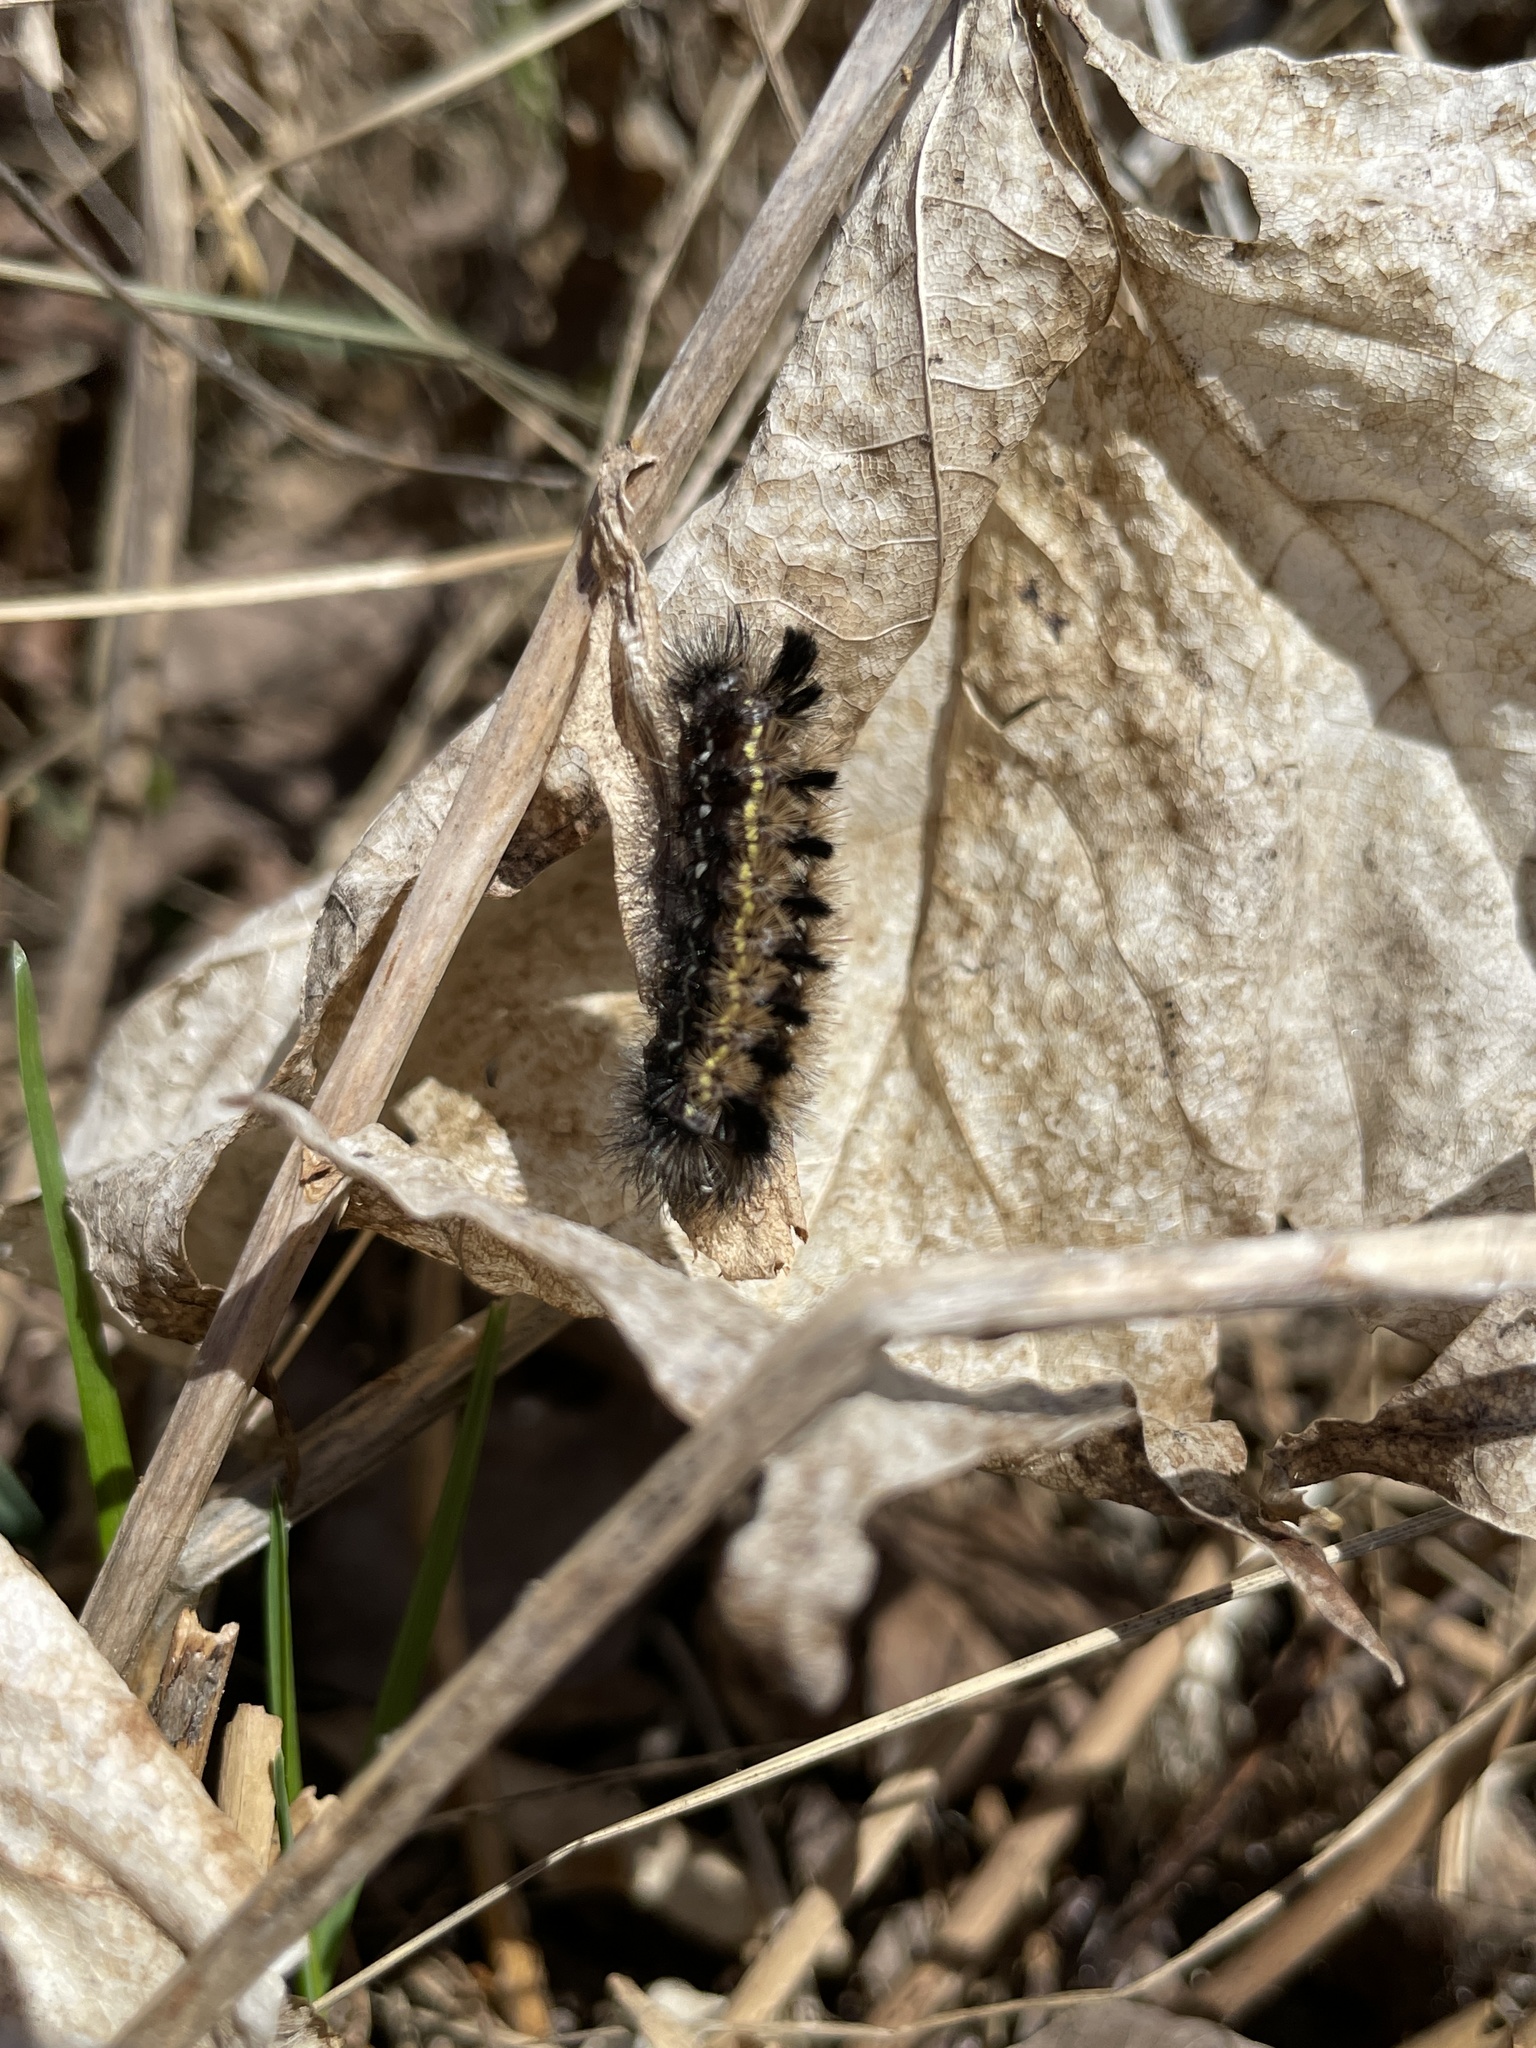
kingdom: Animalia
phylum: Arthropoda
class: Insecta
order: Lepidoptera
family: Erebidae
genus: Ctenucha
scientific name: Ctenucha virginica
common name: Virginia ctenucha moth
